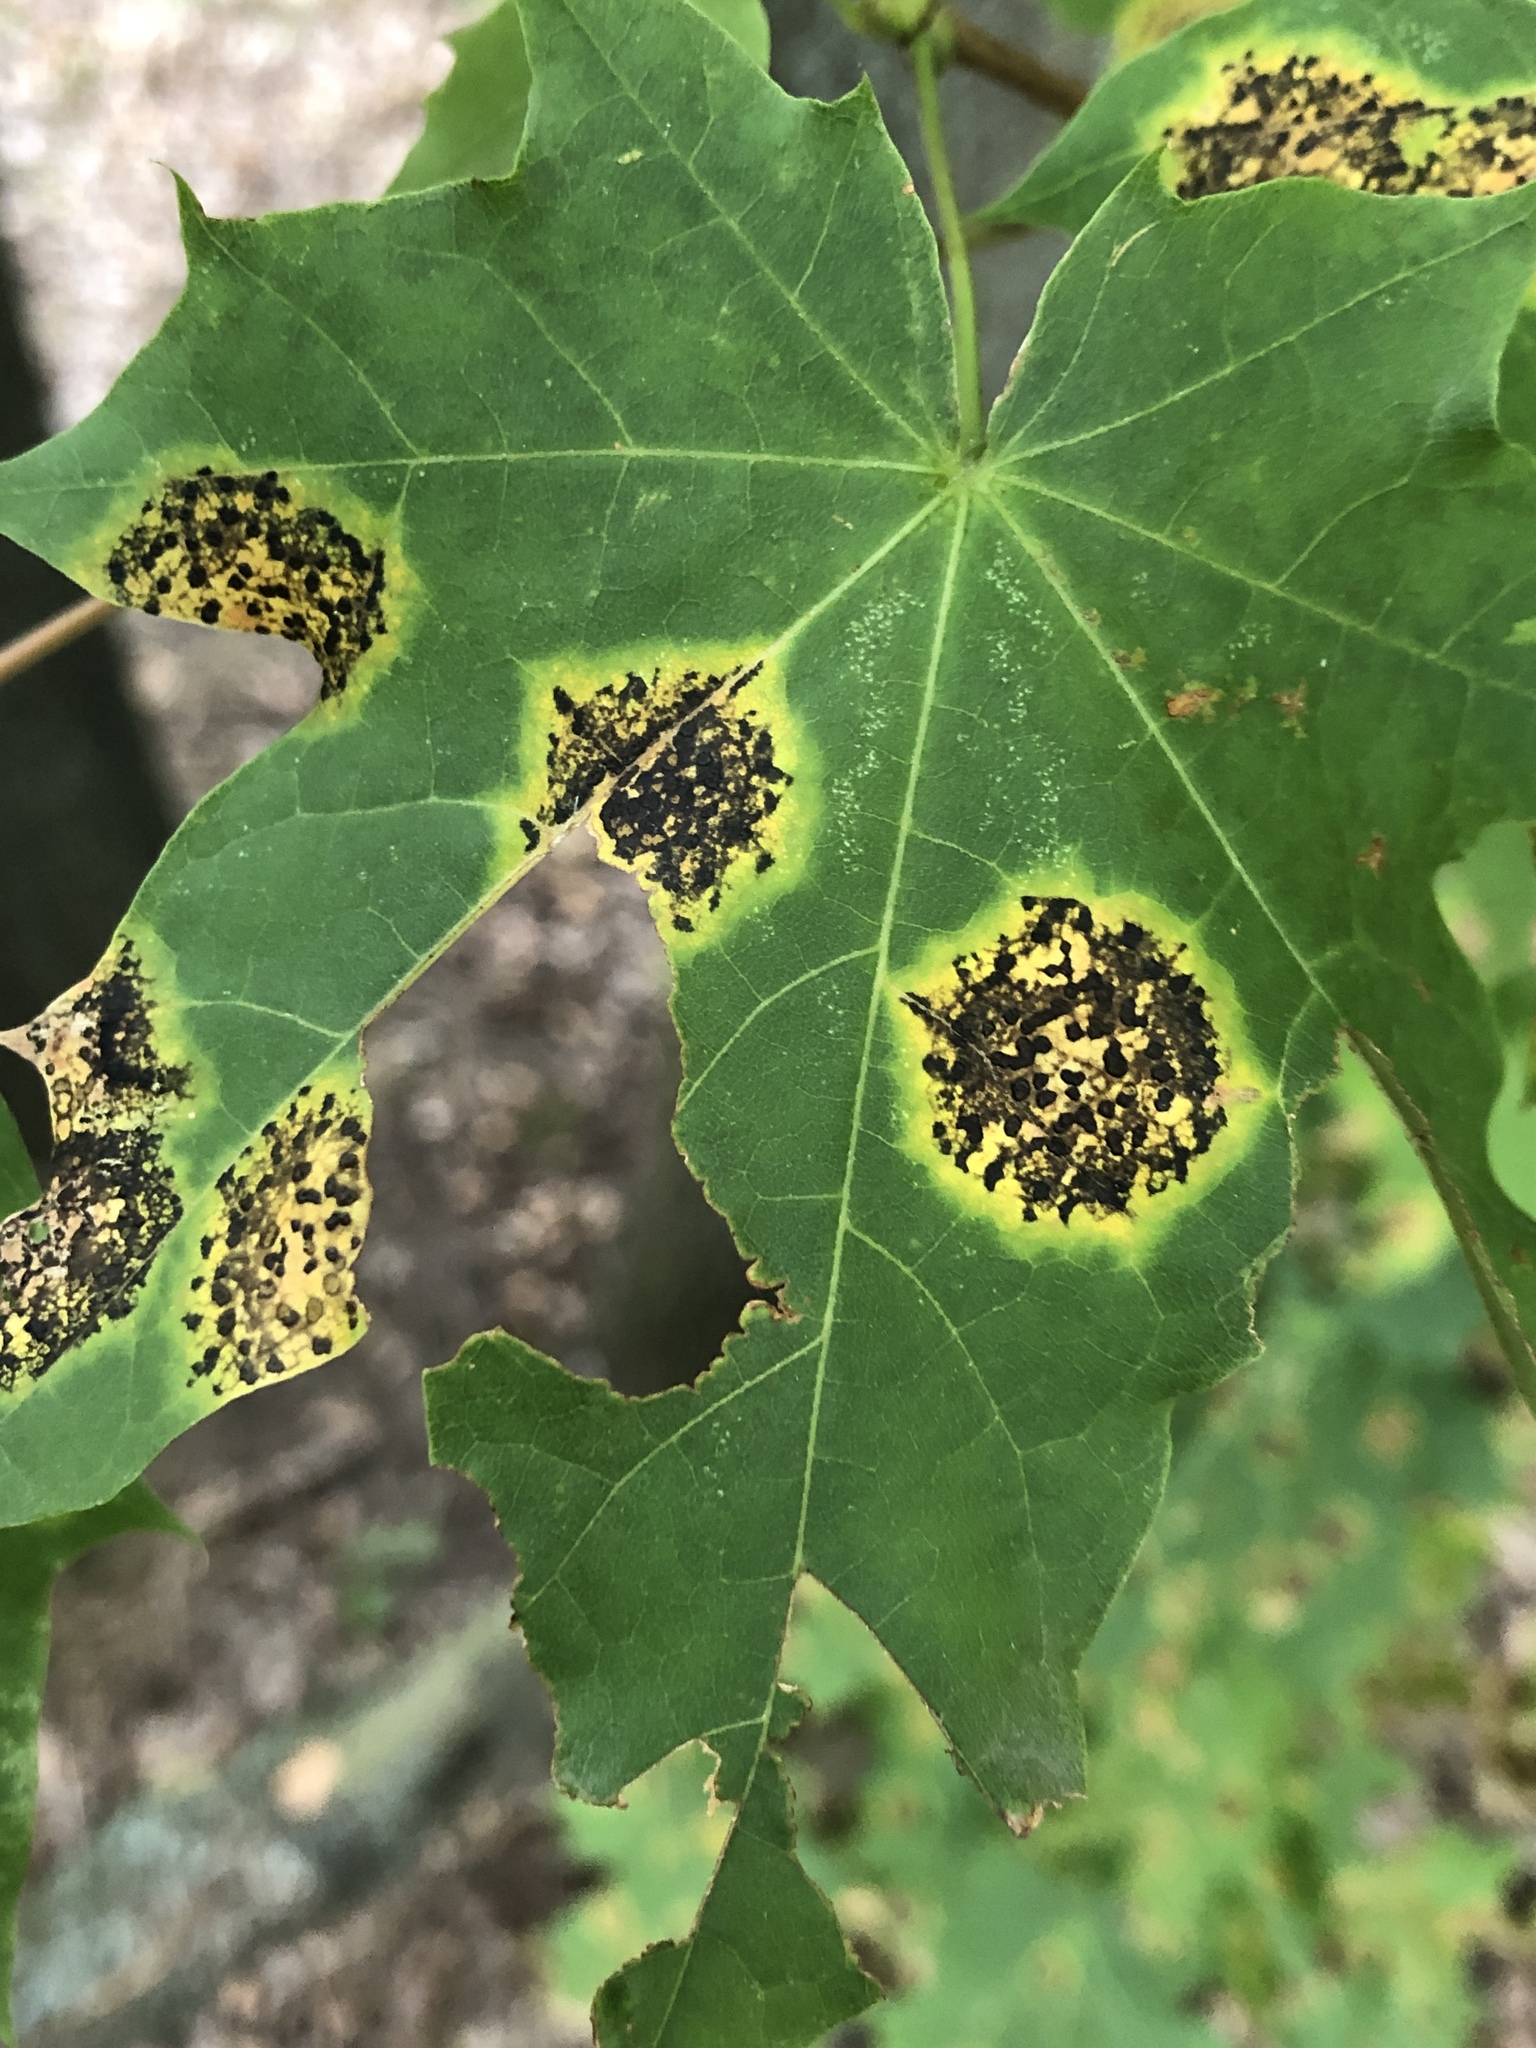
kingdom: Fungi
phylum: Ascomycota
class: Leotiomycetes
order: Rhytismatales
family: Rhytismataceae
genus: Rhytisma
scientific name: Rhytisma acerinum
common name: European tar spot
